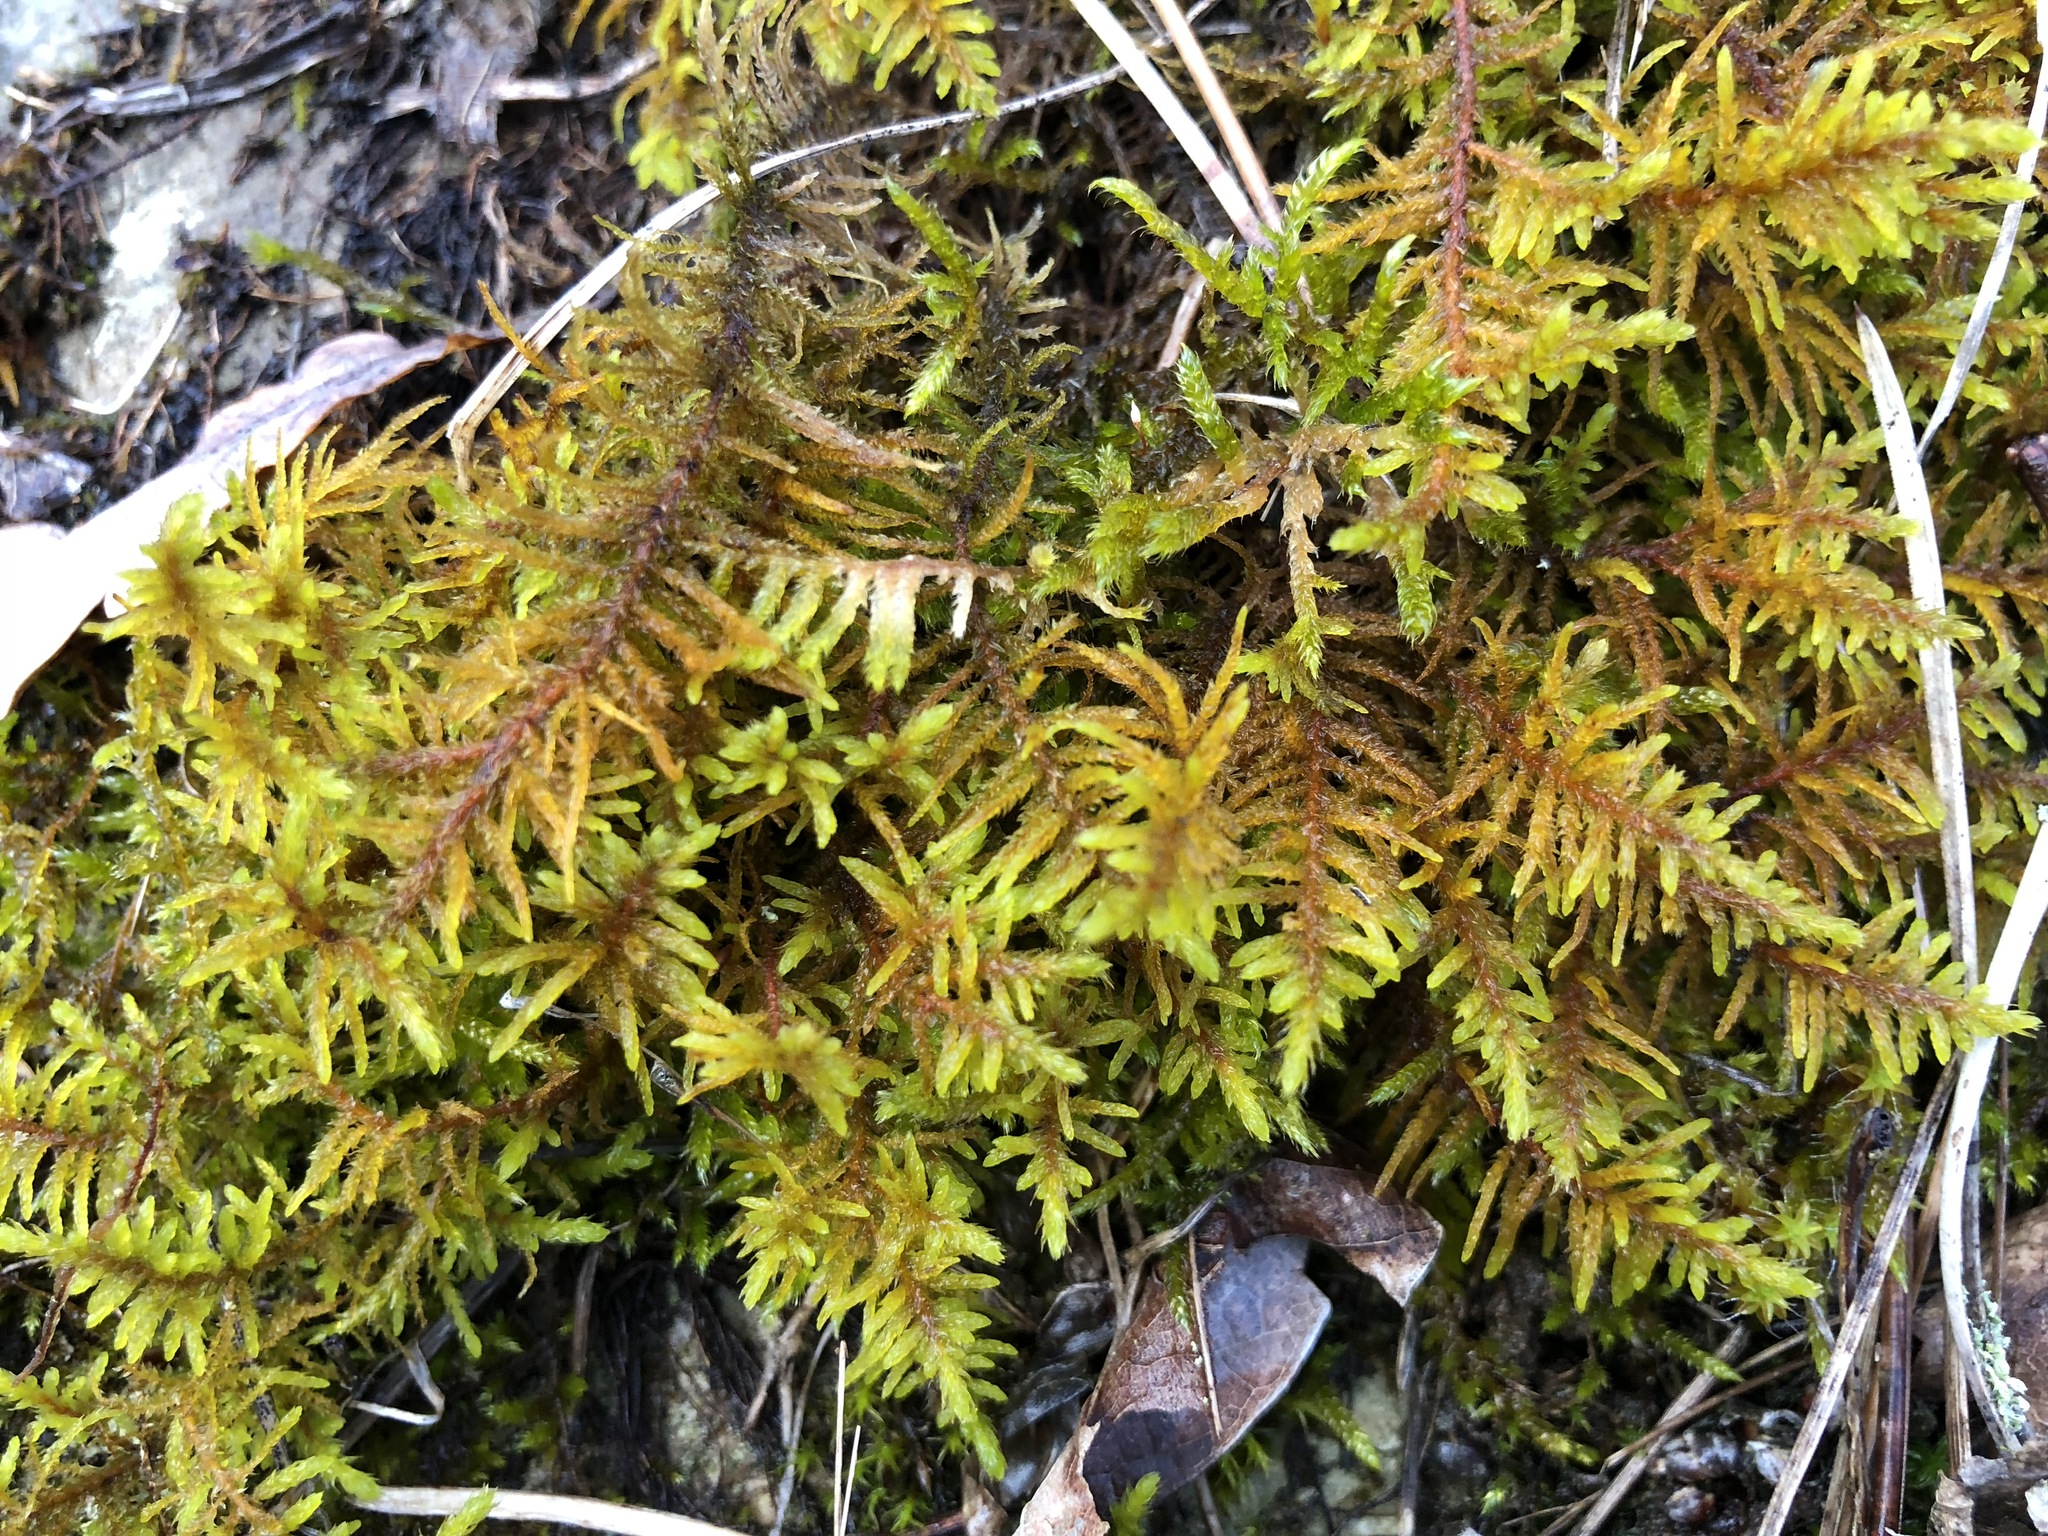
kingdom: Plantae
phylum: Bryophyta
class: Bryopsida
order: Hypnales
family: Thuidiaceae
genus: Abietinella
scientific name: Abietinella abietina
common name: Wiry fern moss
